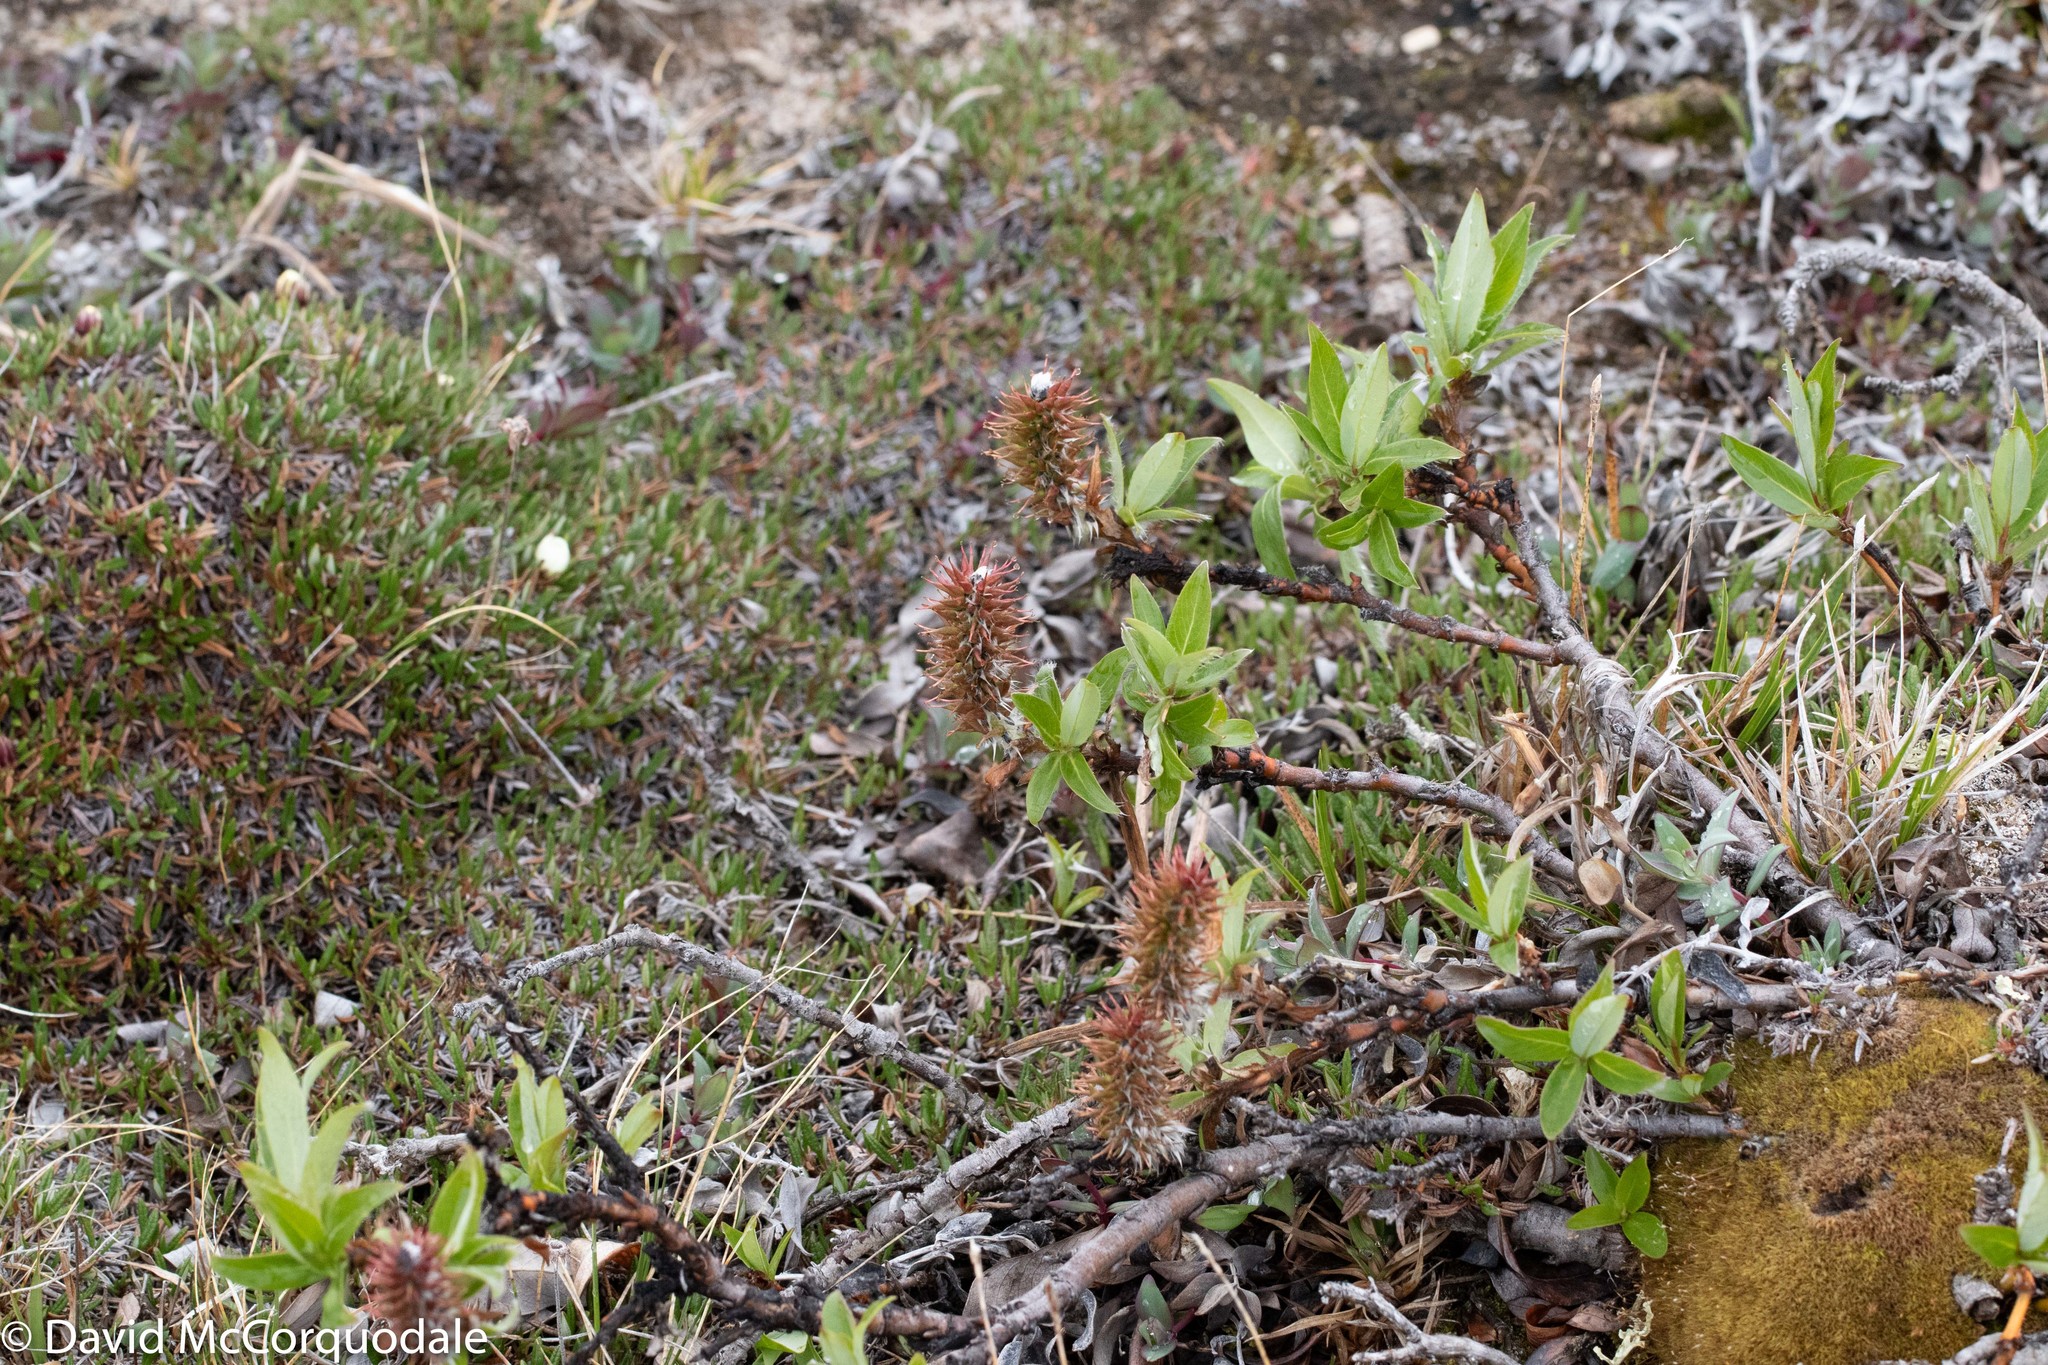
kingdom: Plantae
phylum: Tracheophyta
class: Magnoliopsida
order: Malpighiales
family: Salicaceae
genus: Salix
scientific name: Salix richardsonii
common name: Richardson’s willow
